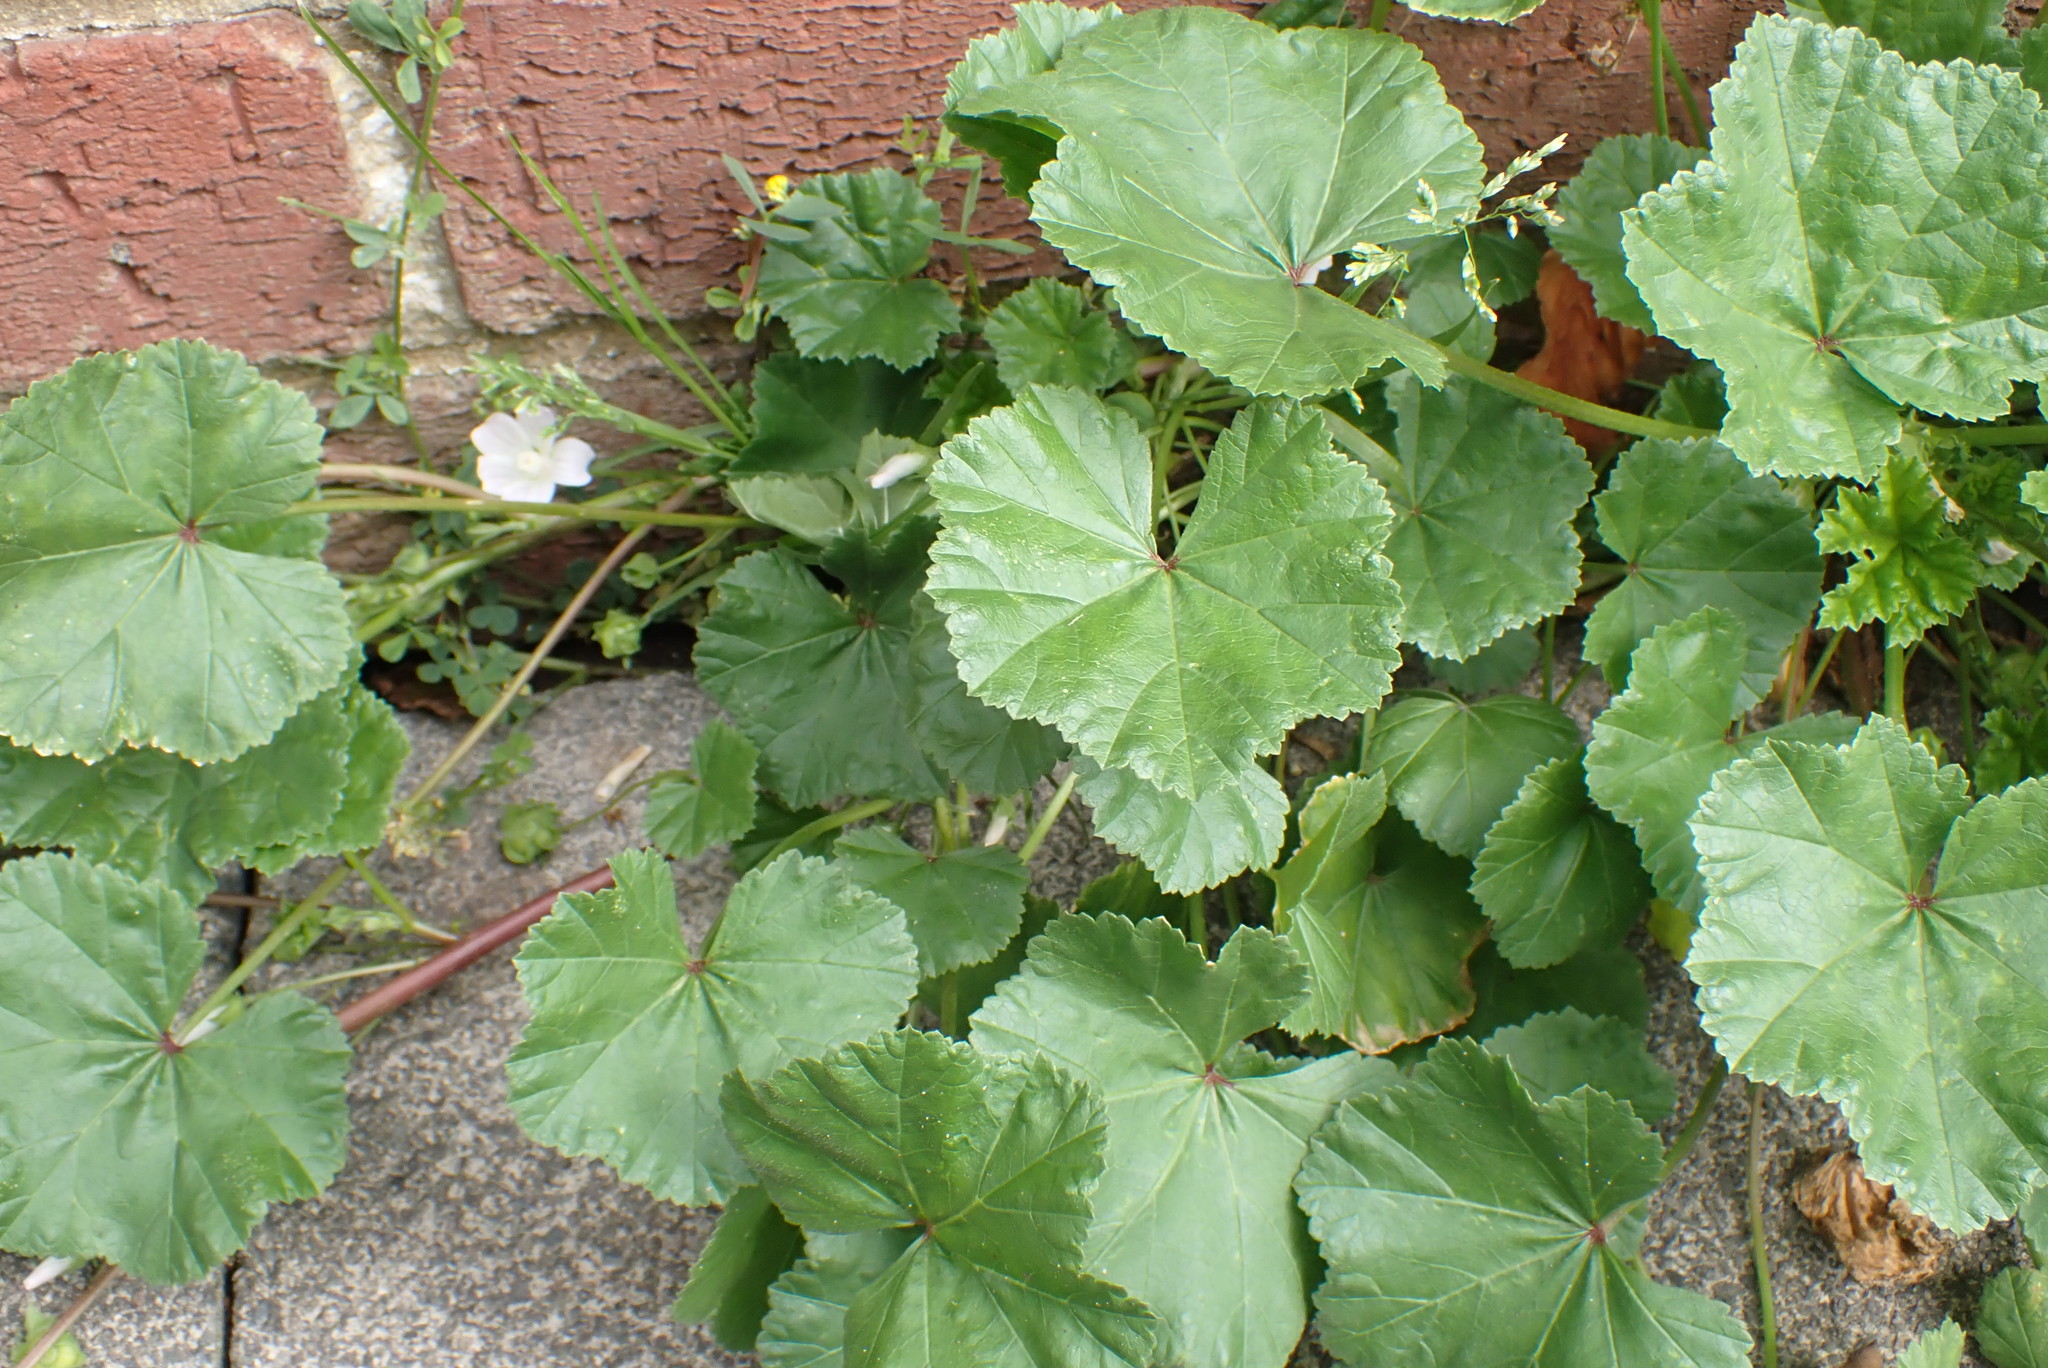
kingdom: Plantae
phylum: Tracheophyta
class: Magnoliopsida
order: Malvales
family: Malvaceae
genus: Malva
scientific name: Malva neglecta
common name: Common mallow
